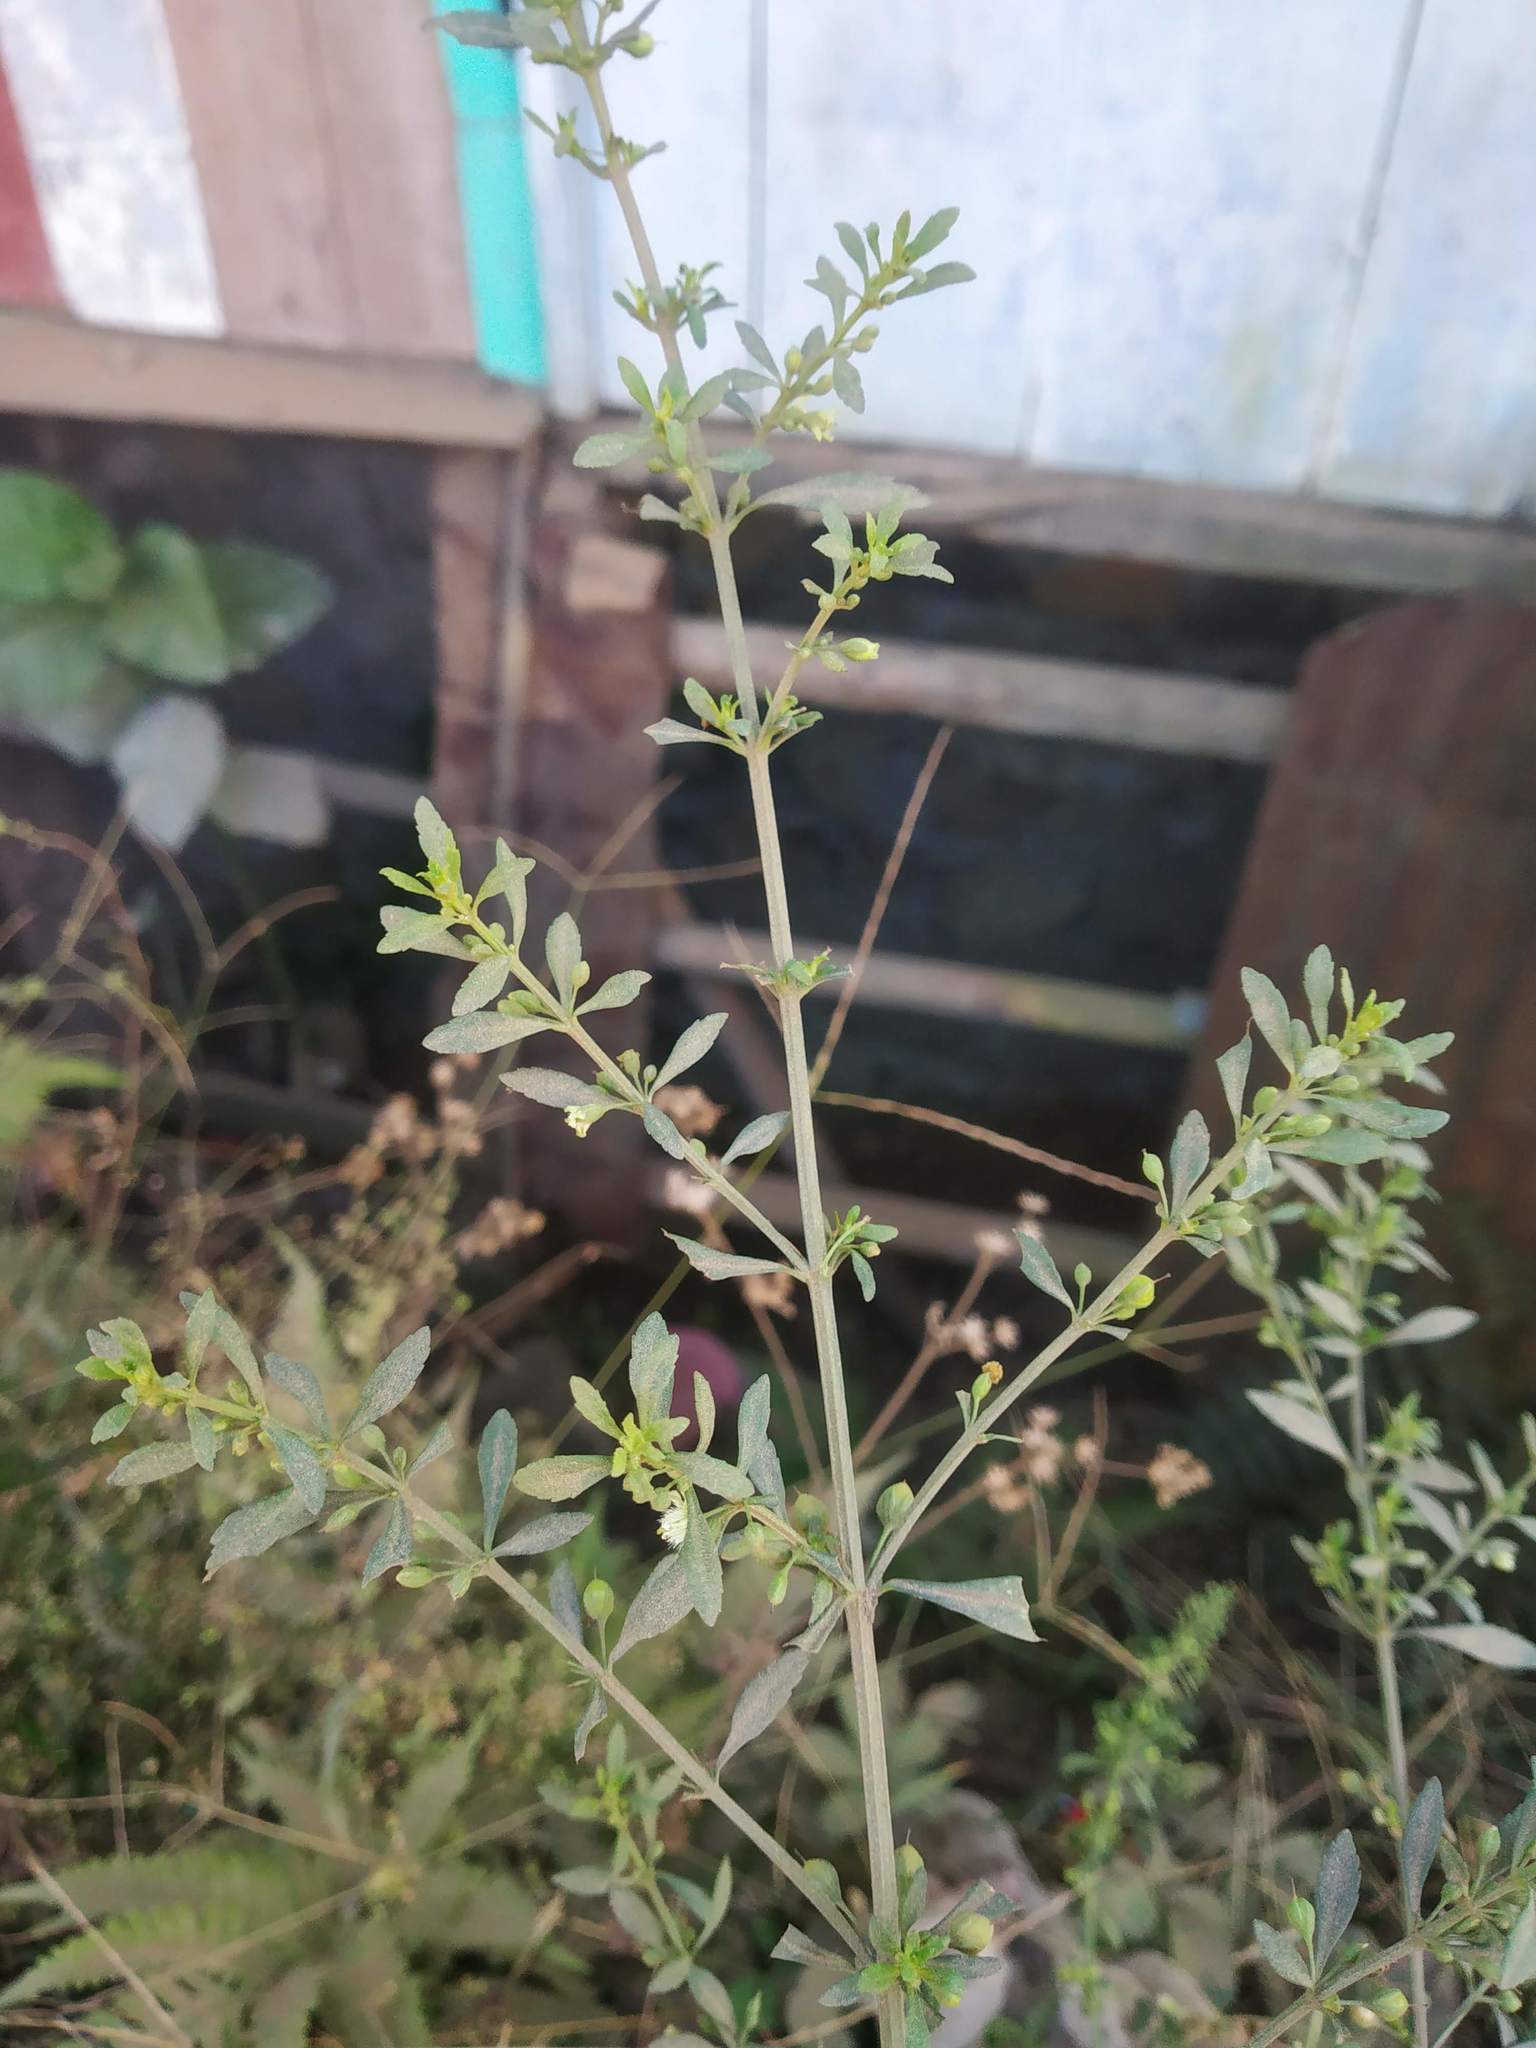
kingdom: Plantae
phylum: Tracheophyta
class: Magnoliopsida
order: Lamiales
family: Plantaginaceae
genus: Scoparia
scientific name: Scoparia dulcis
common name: Scoparia-weed
